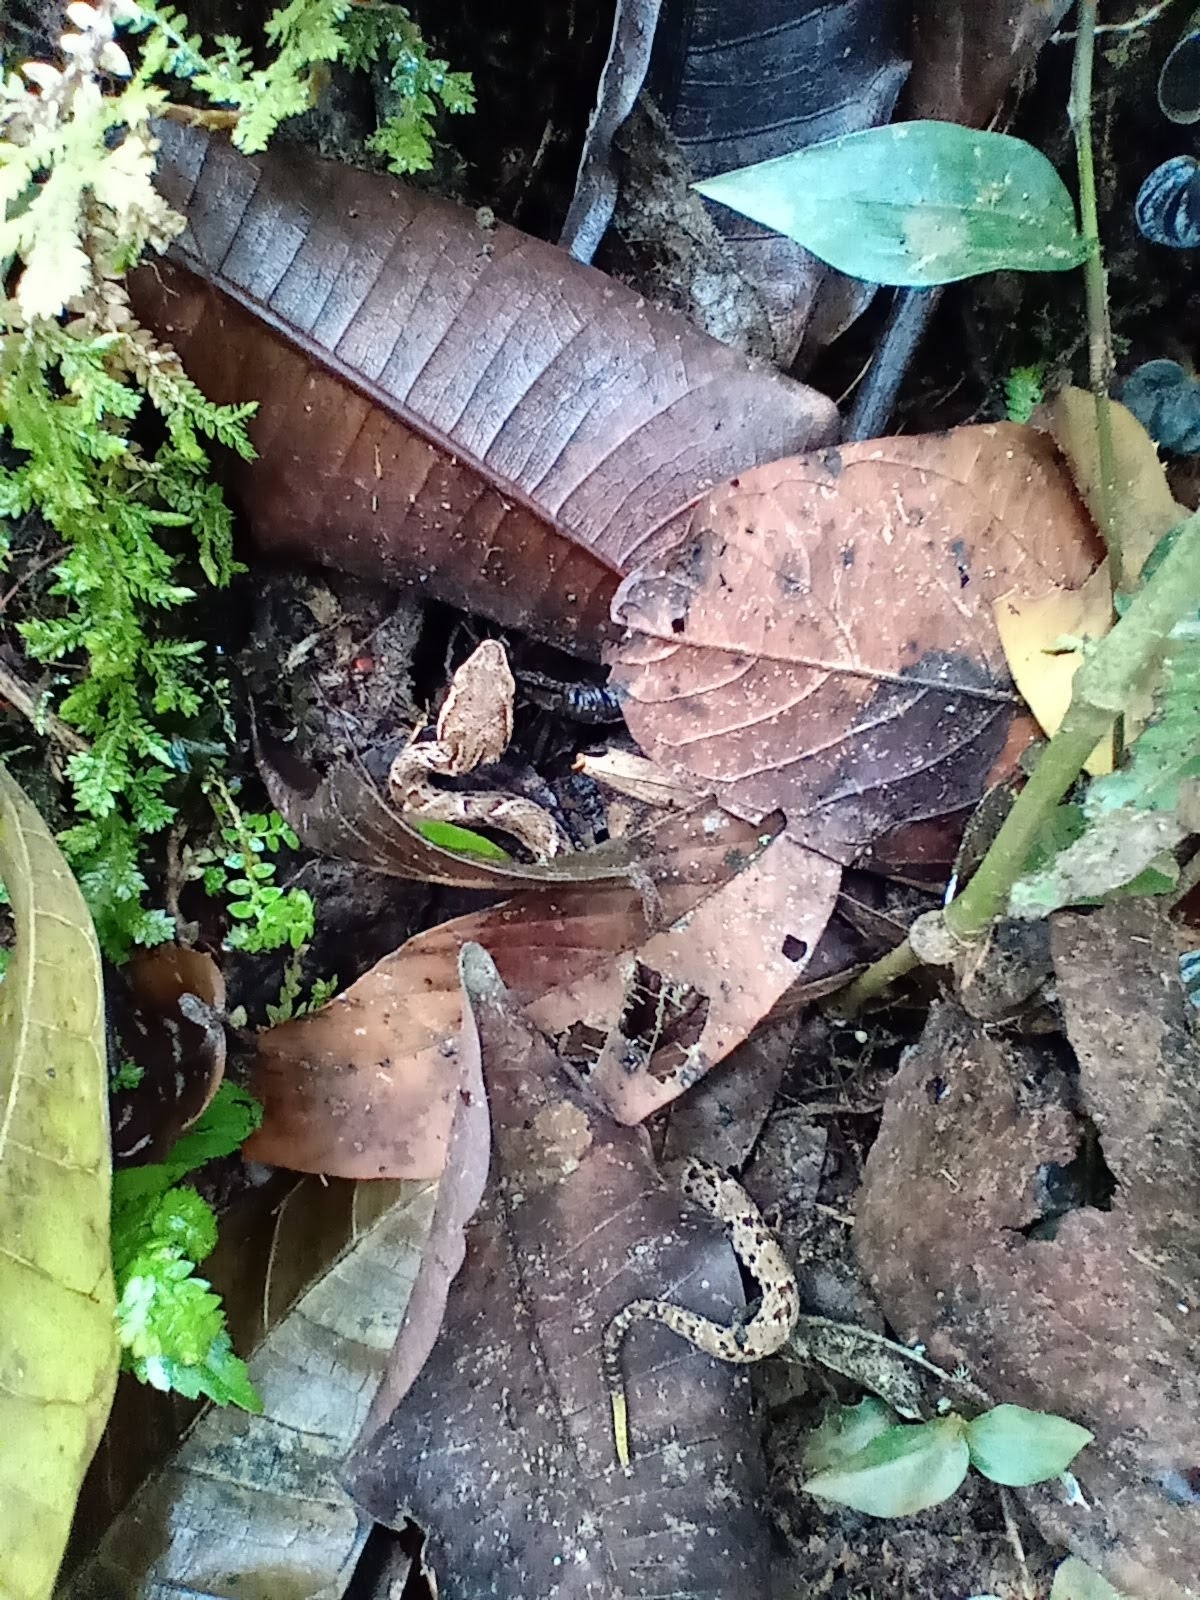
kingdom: Animalia
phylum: Chordata
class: Squamata
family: Viperidae
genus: Bothrops
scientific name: Bothrops asper
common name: Terciopelo
